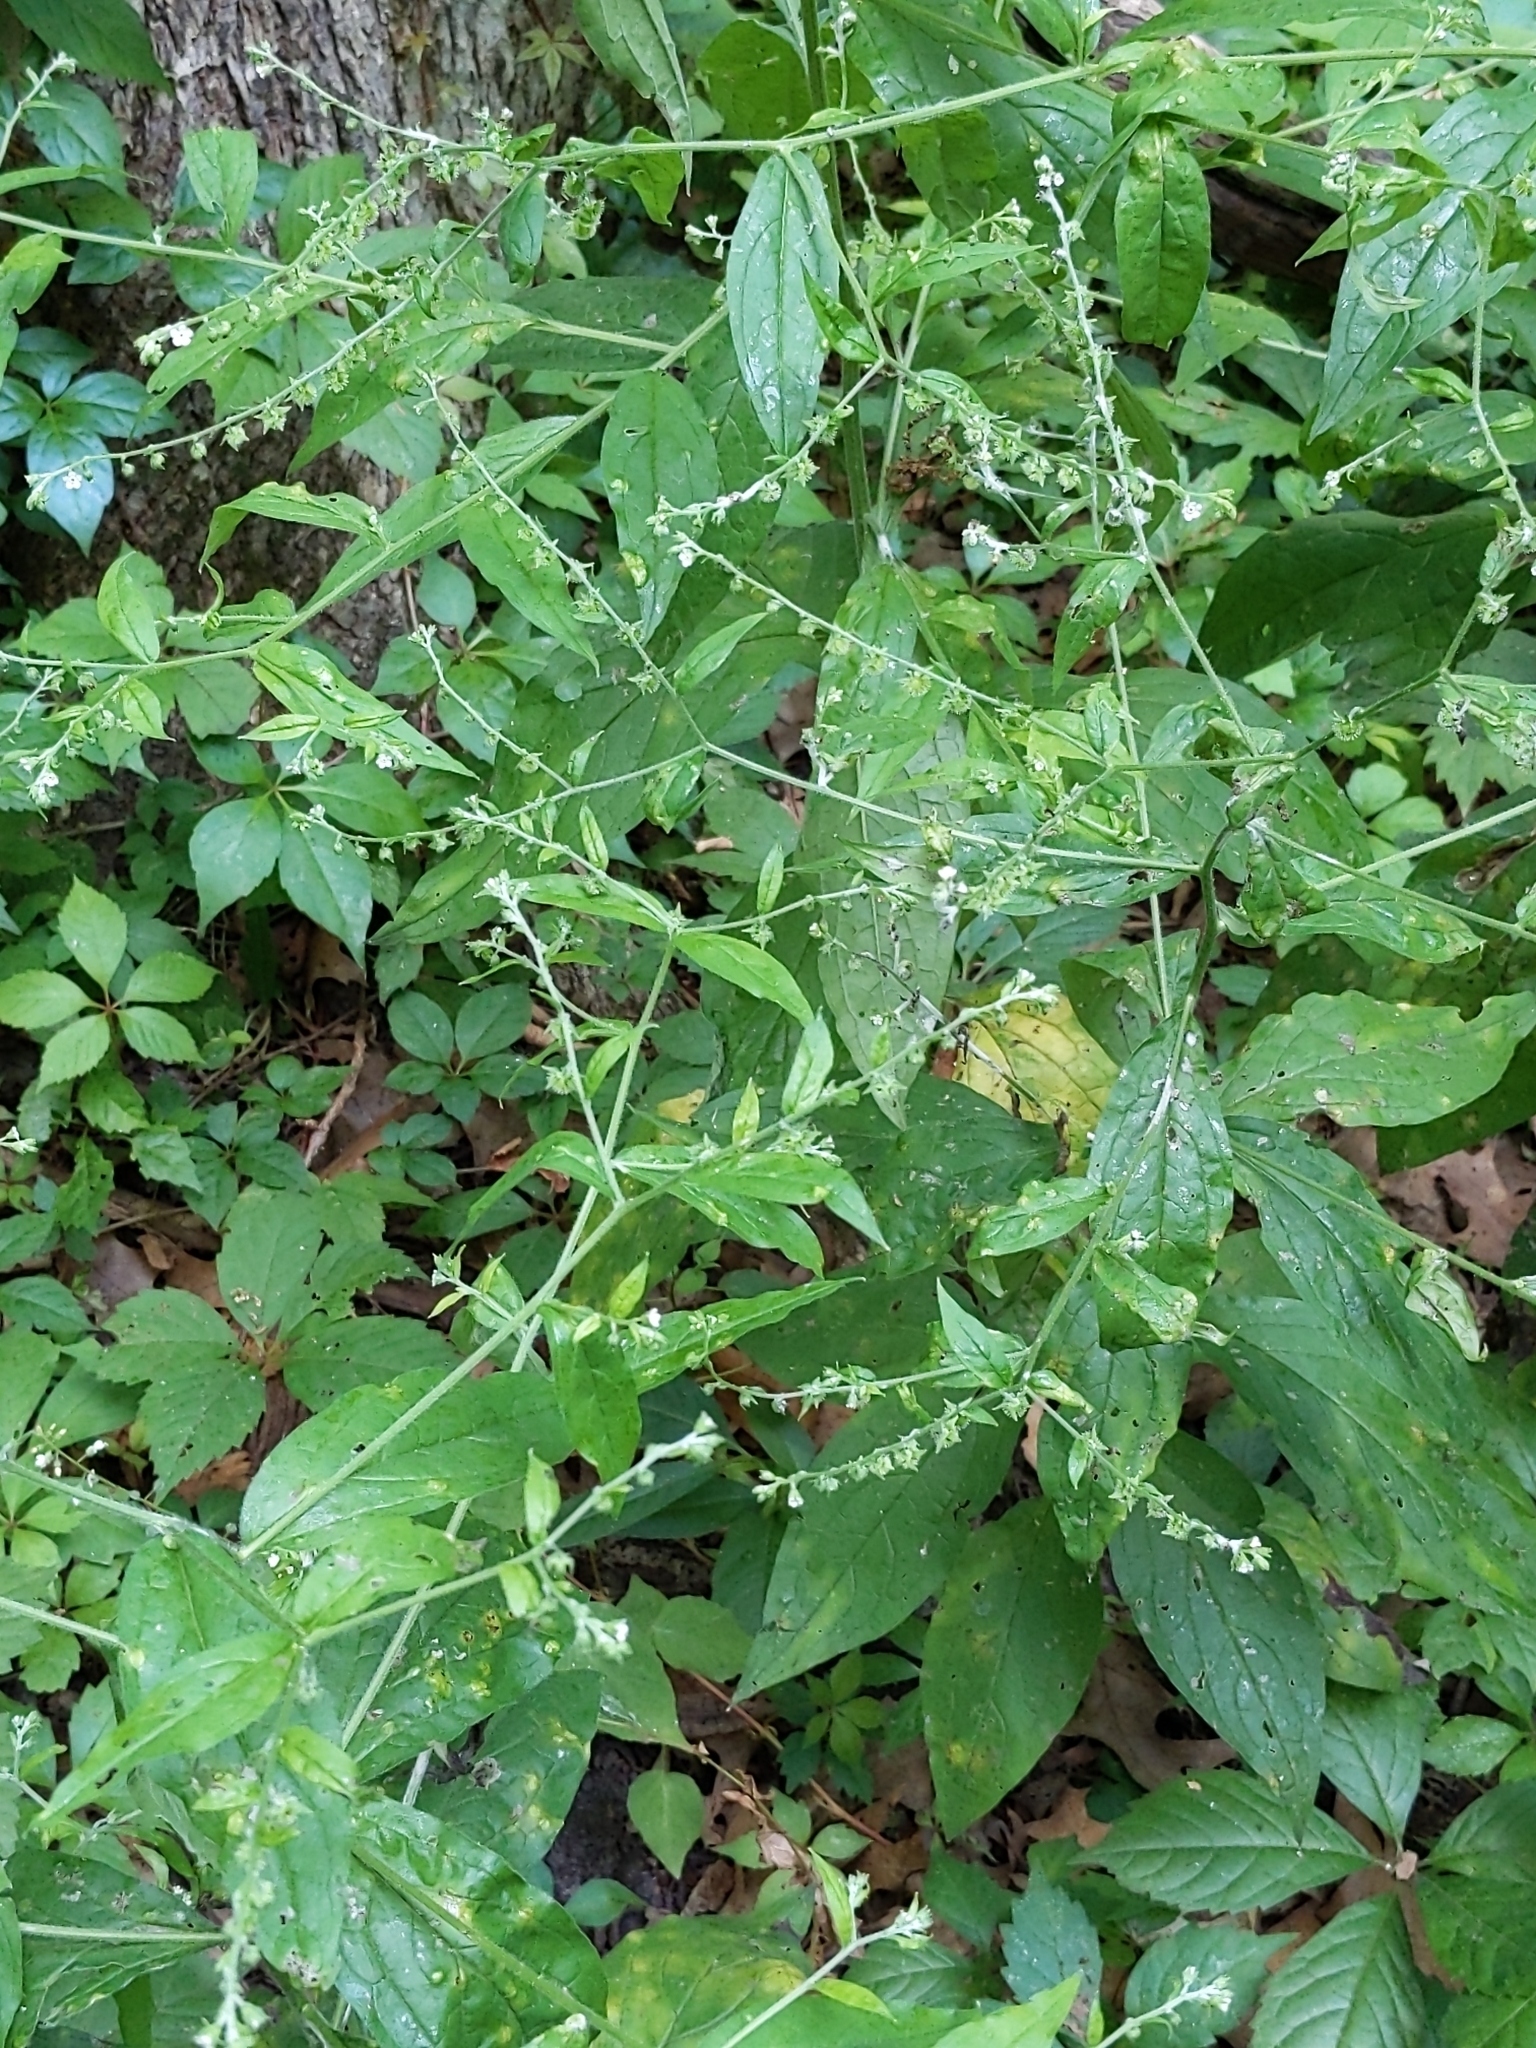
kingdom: Plantae
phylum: Tracheophyta
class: Magnoliopsida
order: Boraginales
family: Boraginaceae
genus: Hackelia
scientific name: Hackelia virginiana
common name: Beggar's-lice
